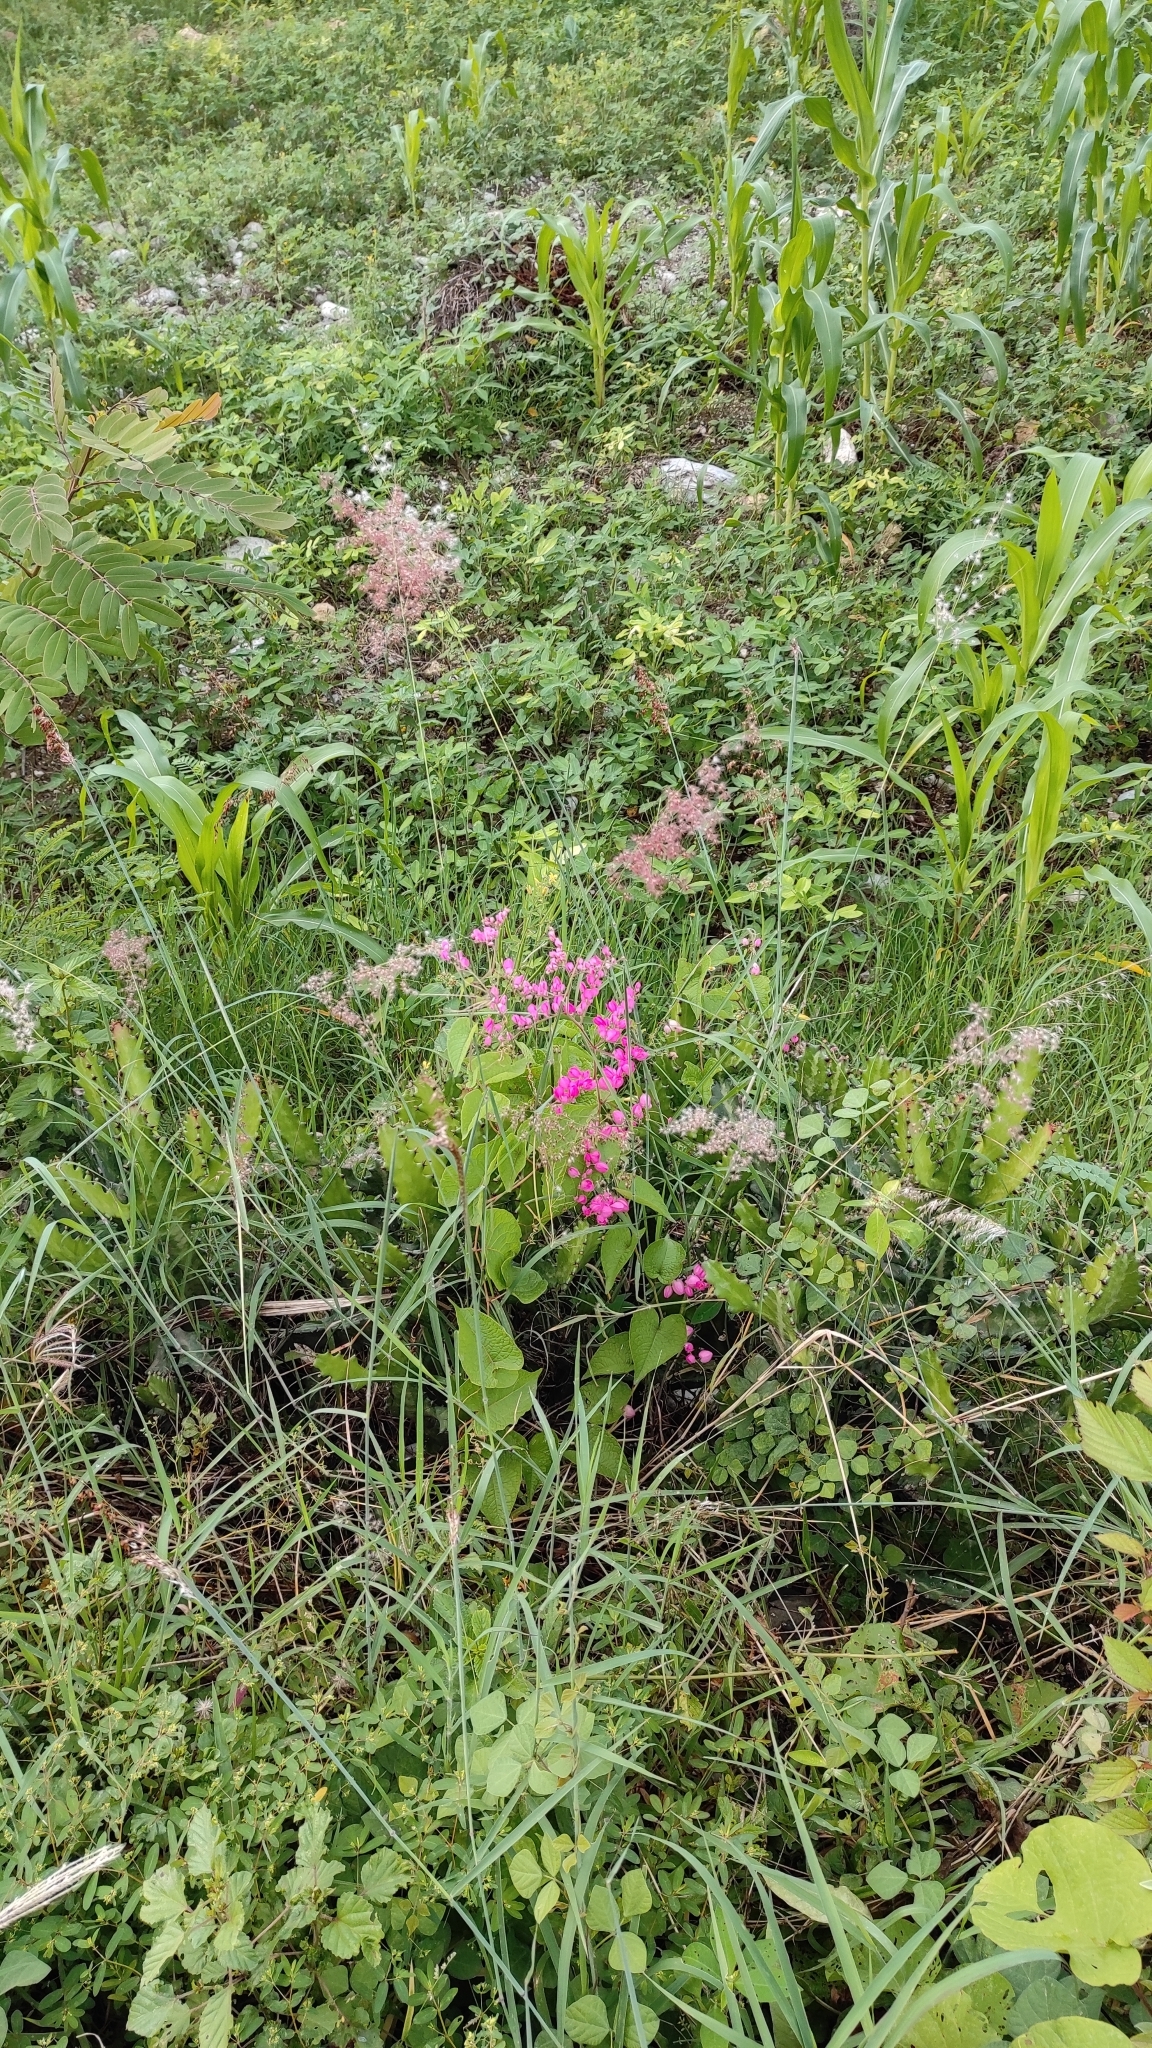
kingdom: Plantae
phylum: Tracheophyta
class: Liliopsida
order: Poales
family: Poaceae
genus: Melinis
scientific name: Melinis repens
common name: Rose natal grass
